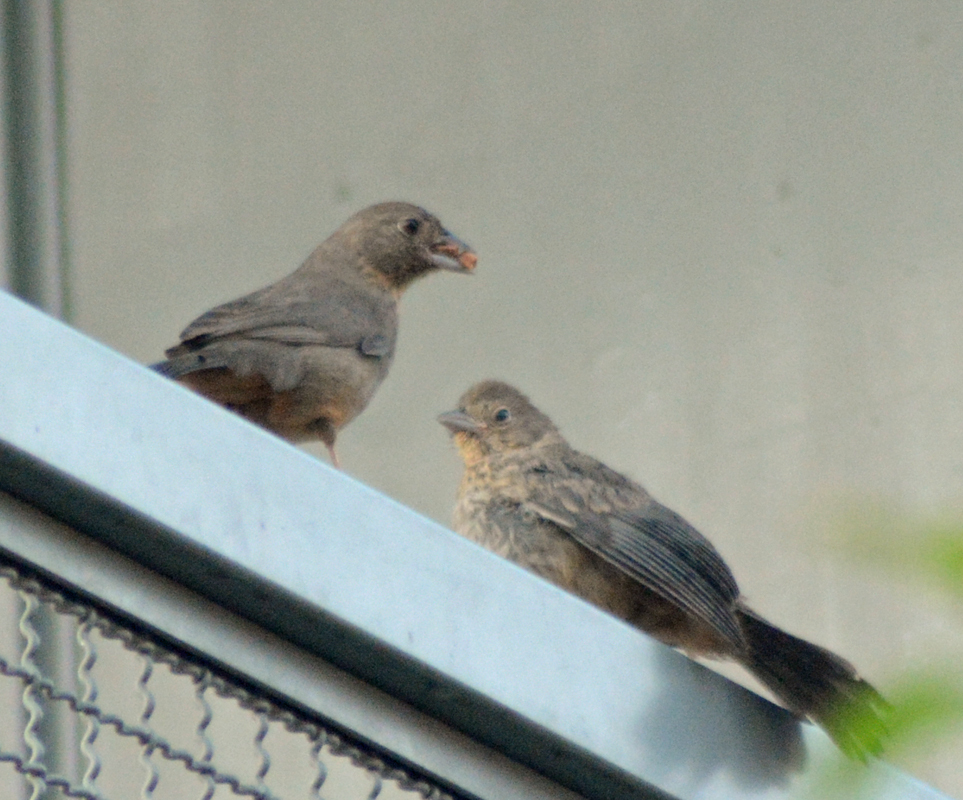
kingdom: Animalia
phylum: Chordata
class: Aves
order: Passeriformes
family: Passerellidae
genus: Melozone
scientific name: Melozone fusca
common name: Canyon towhee
